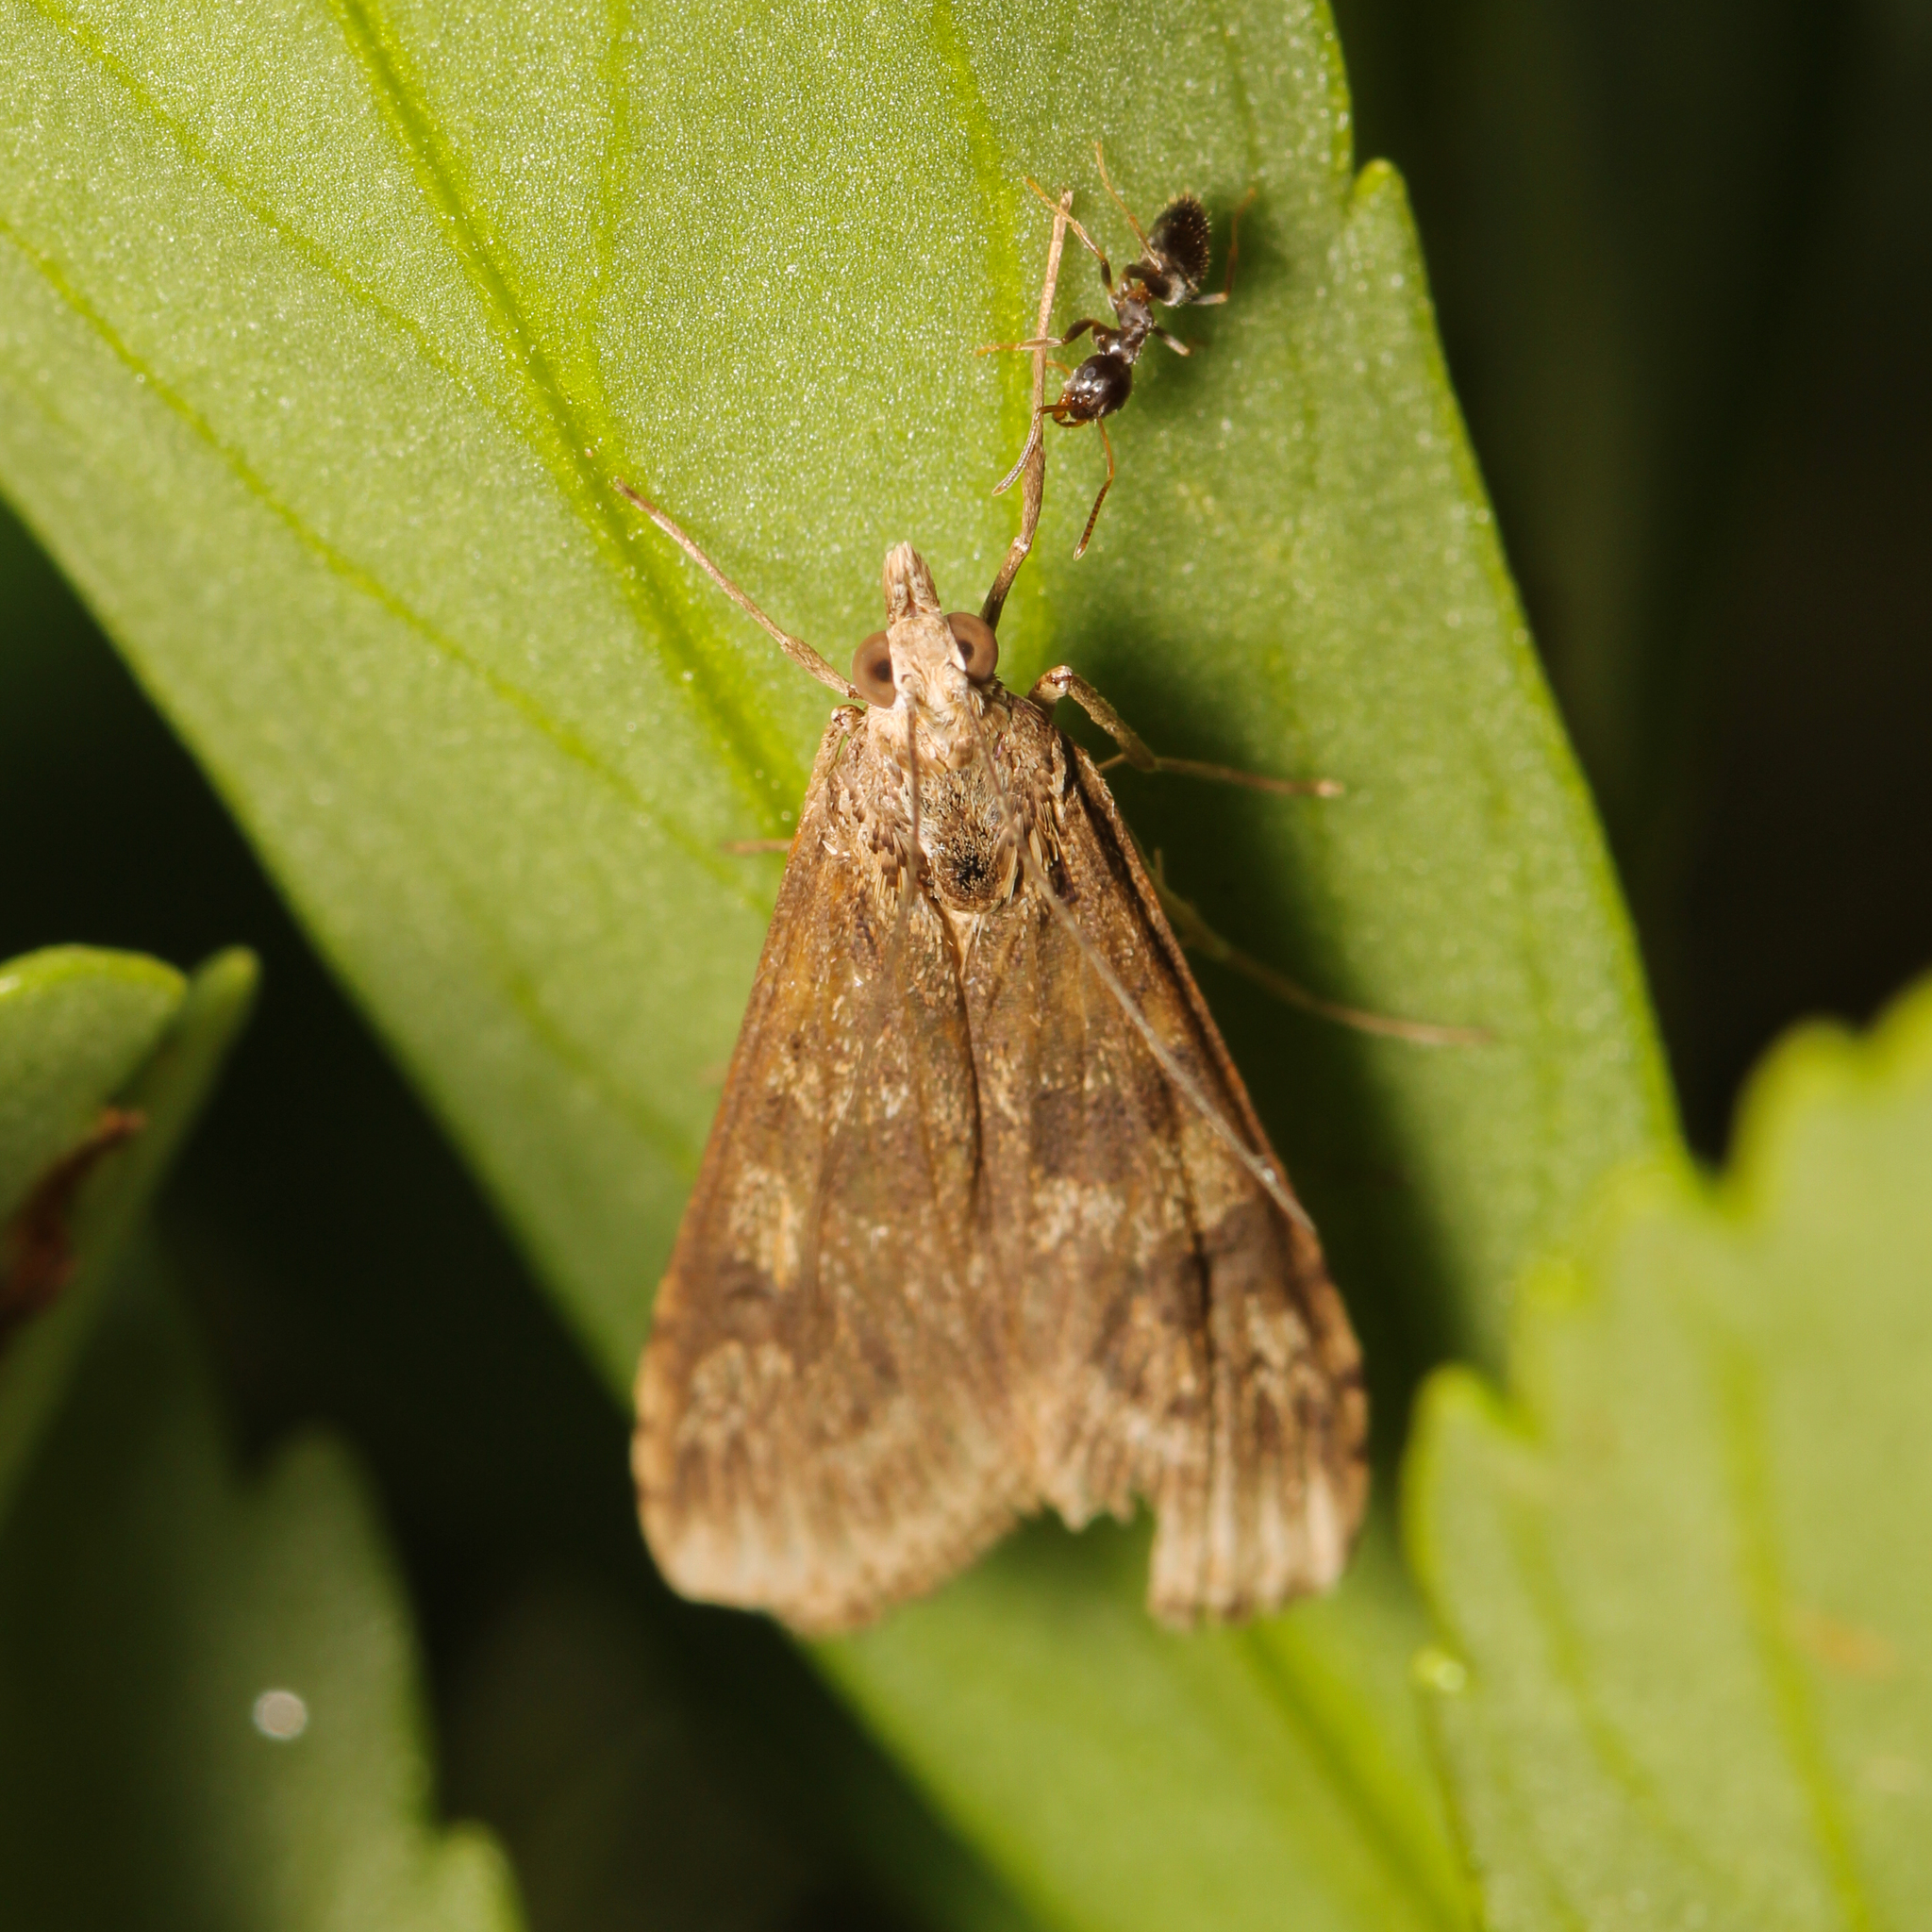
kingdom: Animalia
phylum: Arthropoda
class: Insecta
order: Lepidoptera
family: Crambidae
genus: Nomophila
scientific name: Nomophila nearctica
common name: American rush veneer
